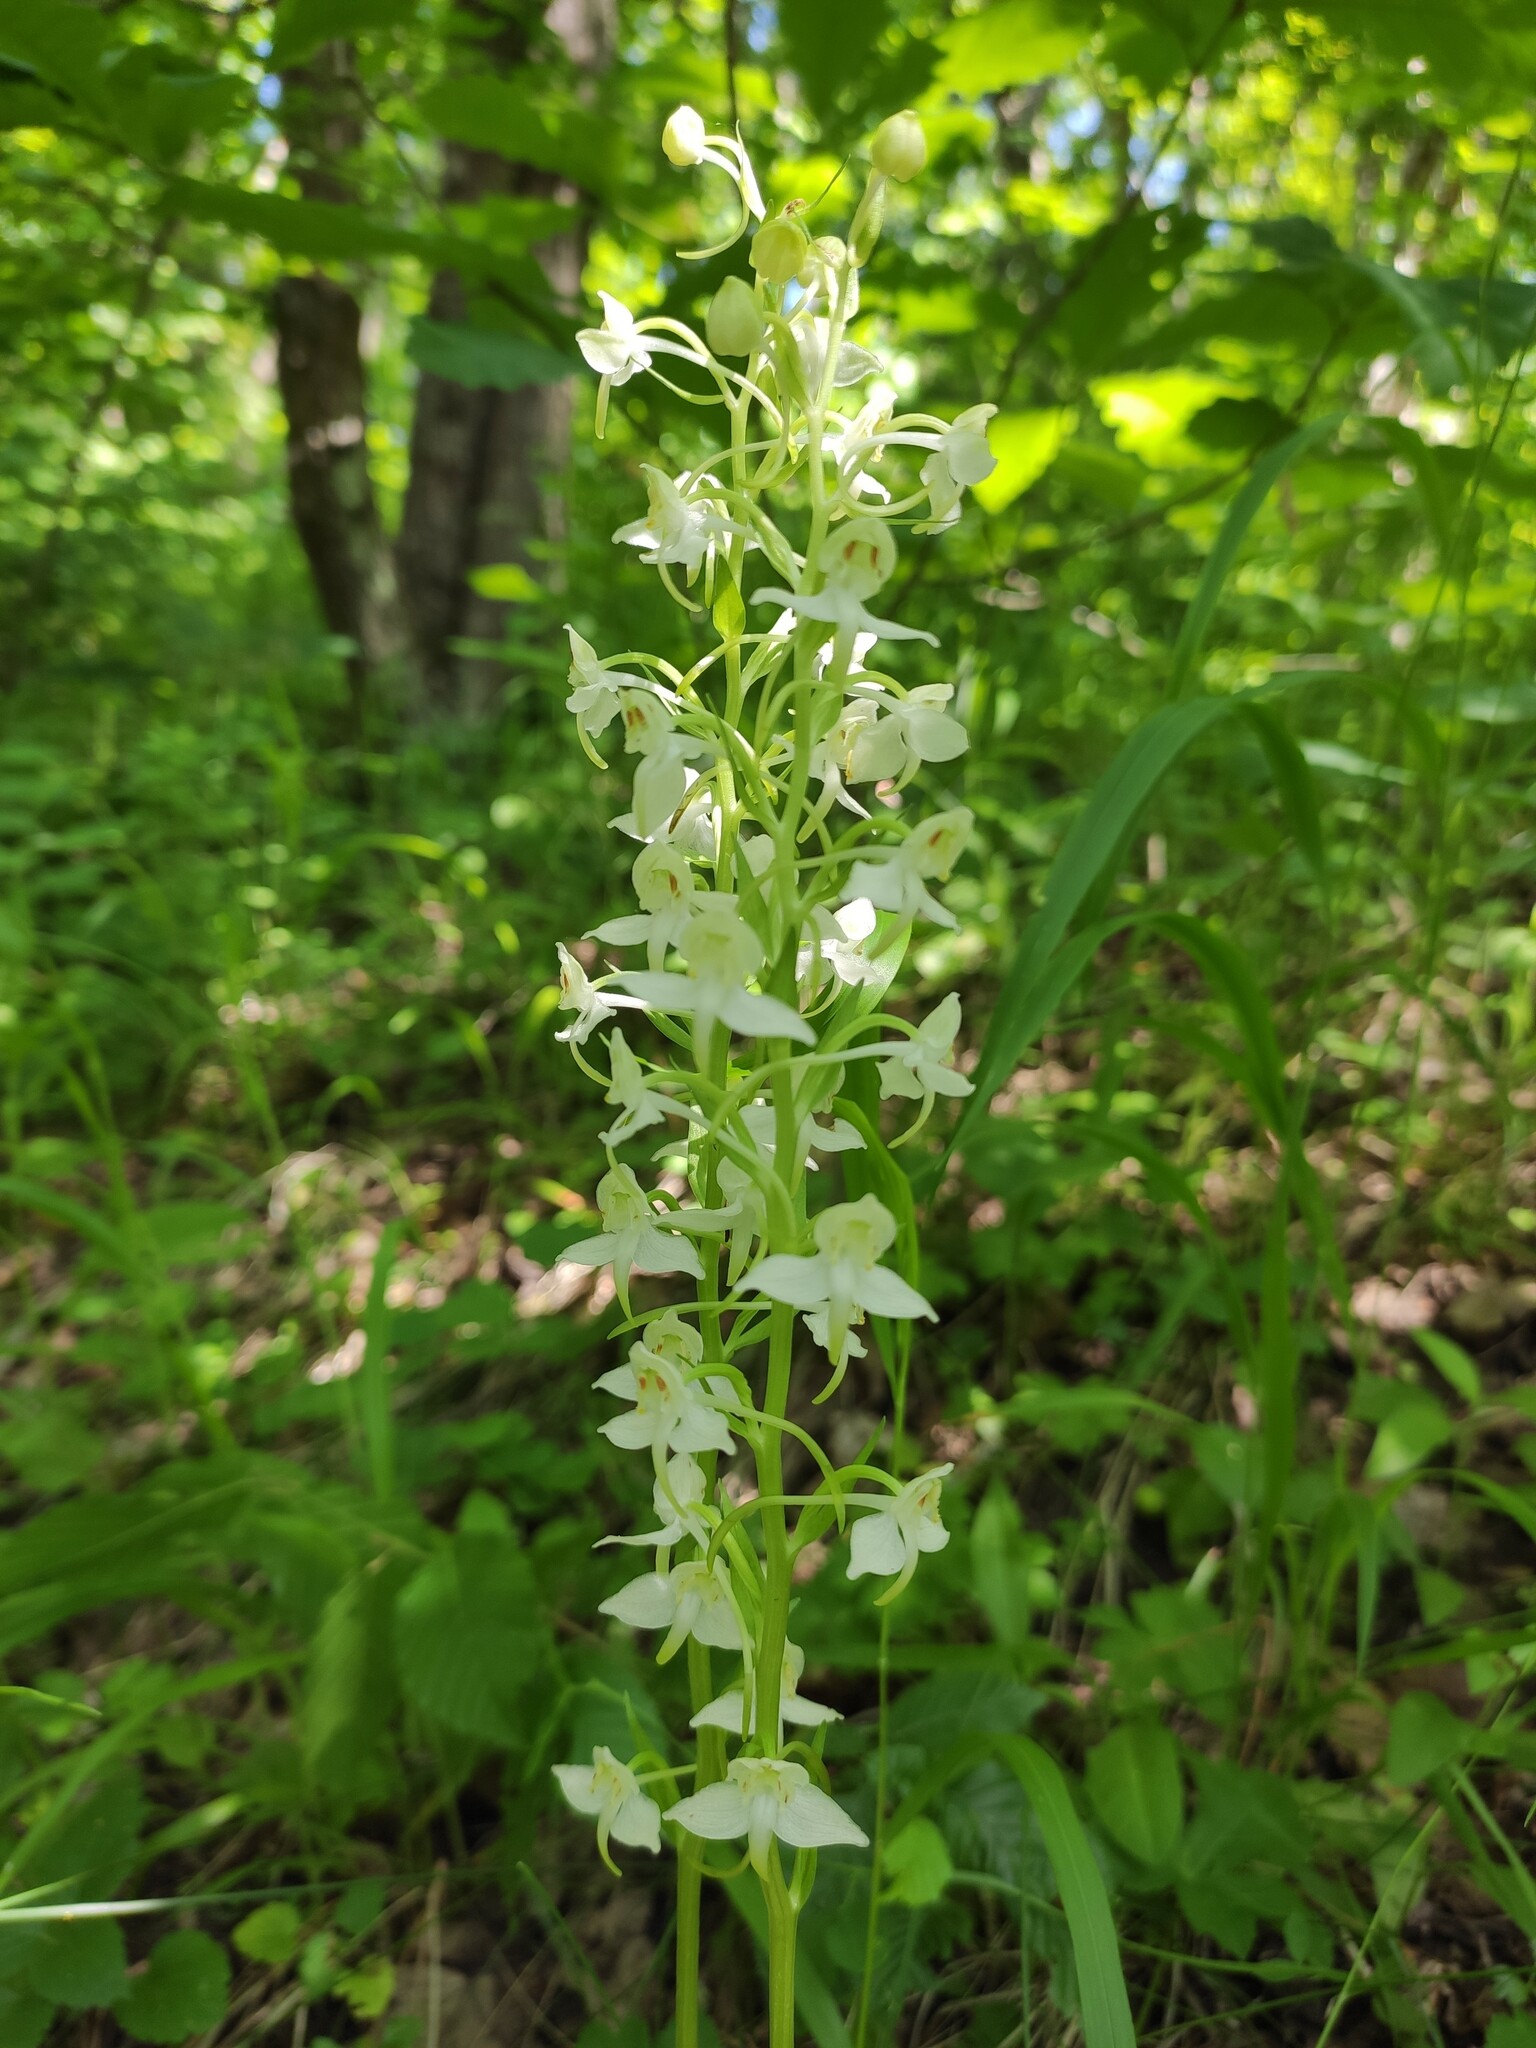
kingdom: Plantae
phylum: Tracheophyta
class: Liliopsida
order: Asparagales
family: Orchidaceae
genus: Platanthera
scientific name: Platanthera chlorantha
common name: Greater butterfly-orchid
